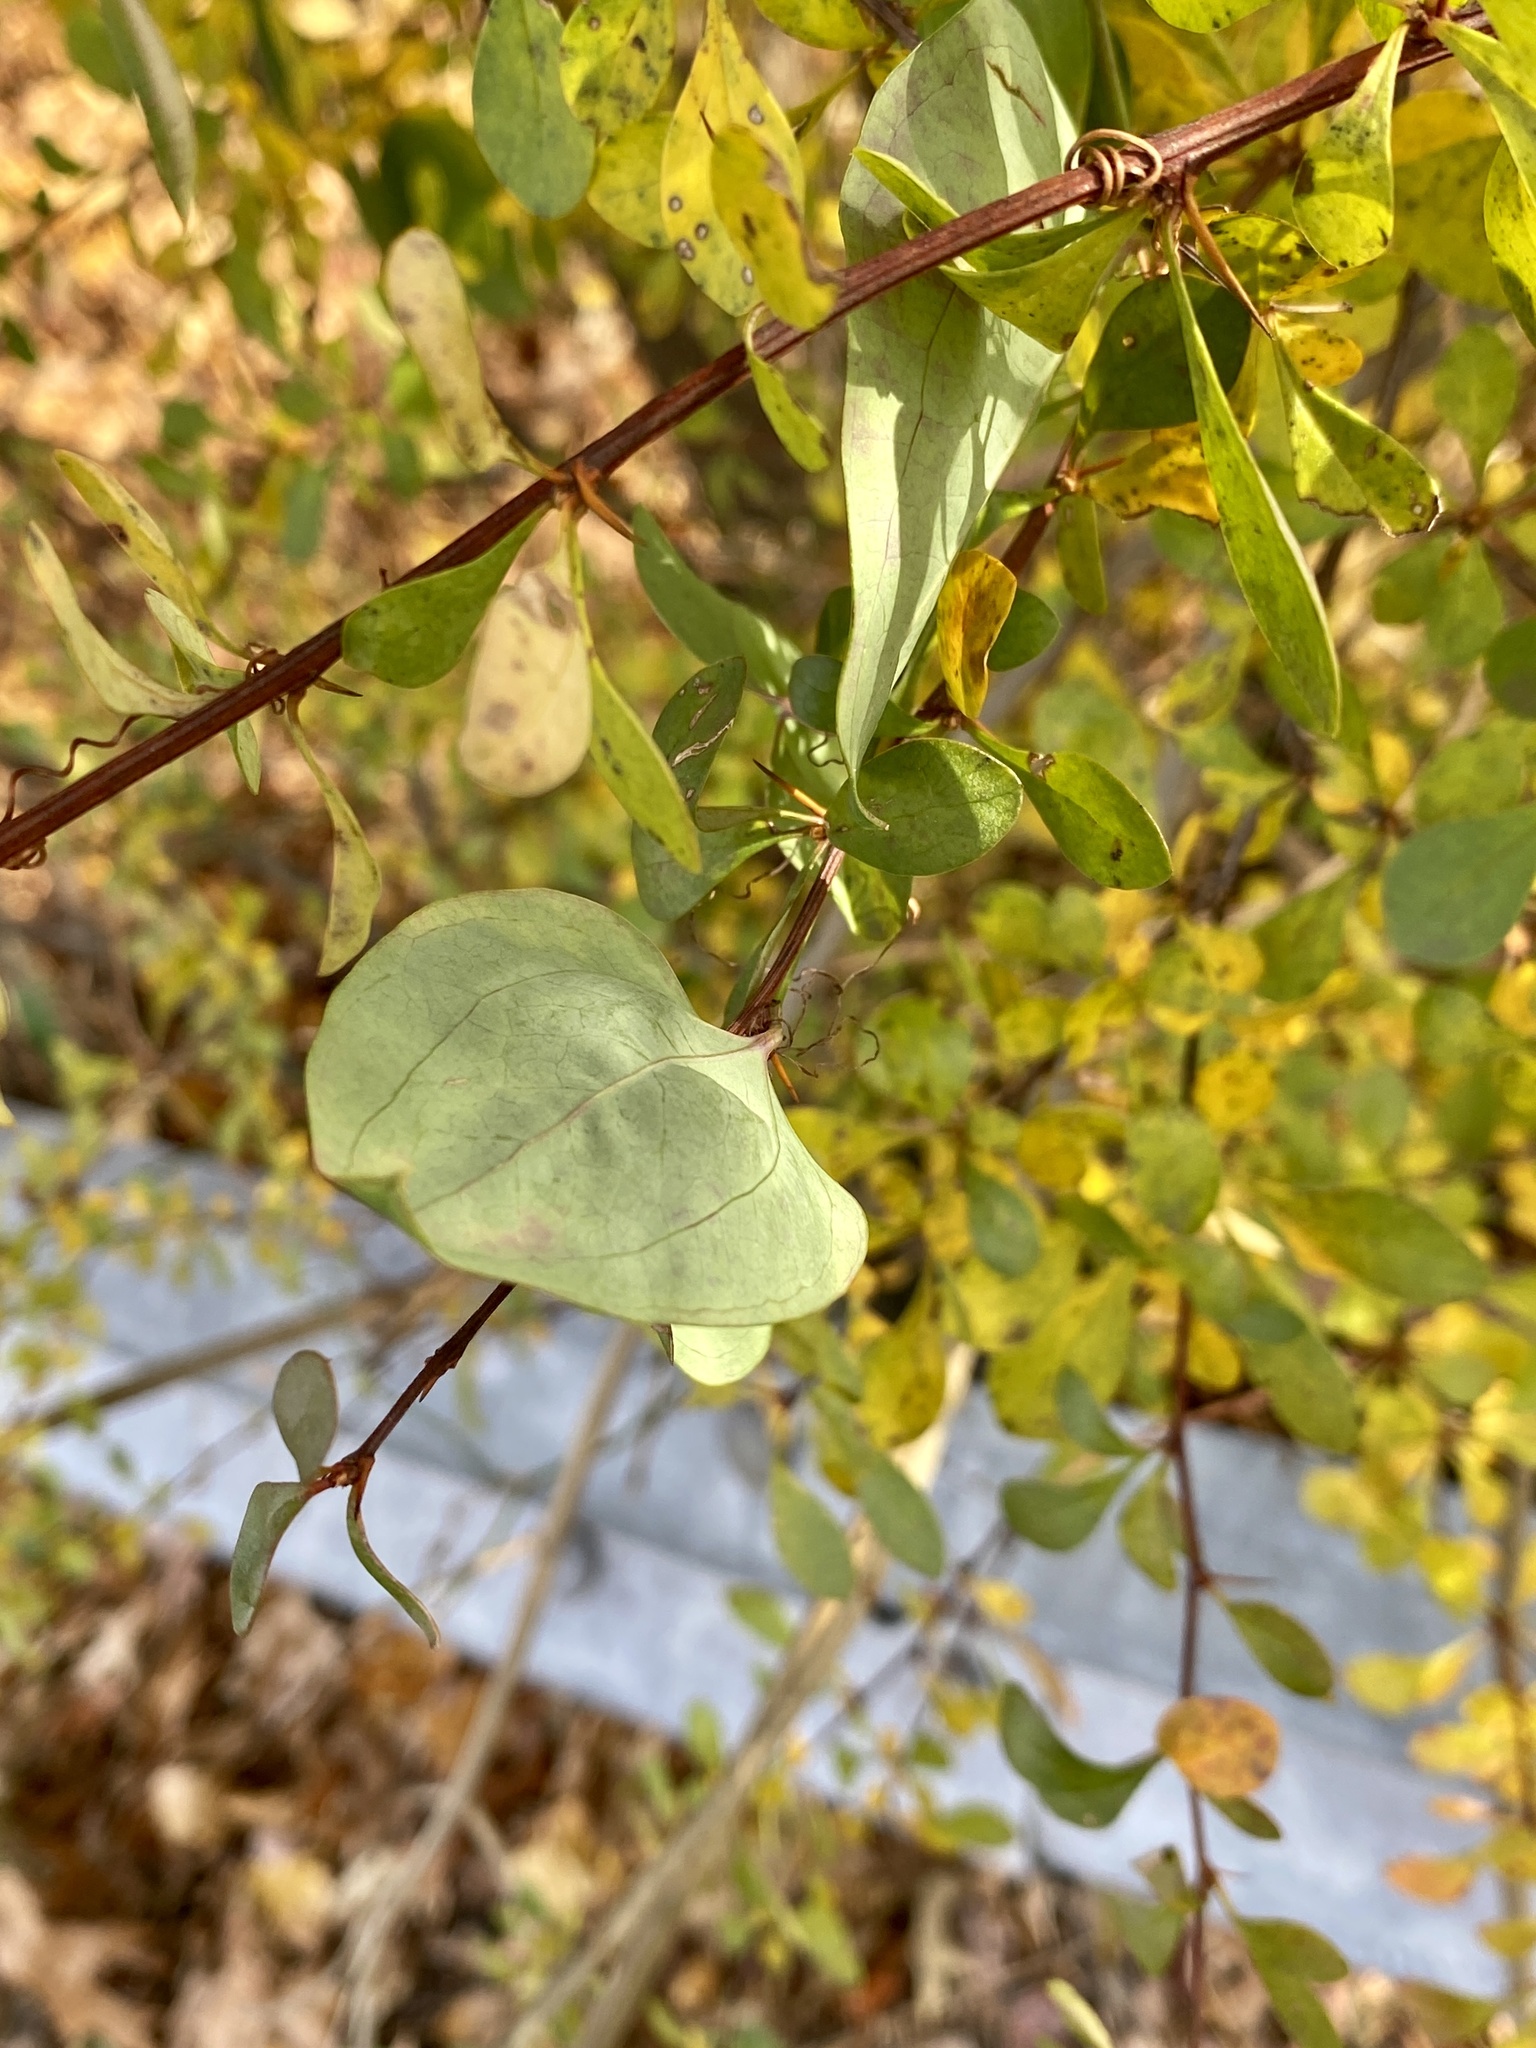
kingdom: Plantae
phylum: Tracheophyta
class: Liliopsida
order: Liliales
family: Smilacaceae
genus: Smilax
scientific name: Smilax glauca
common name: Cat greenbrier
